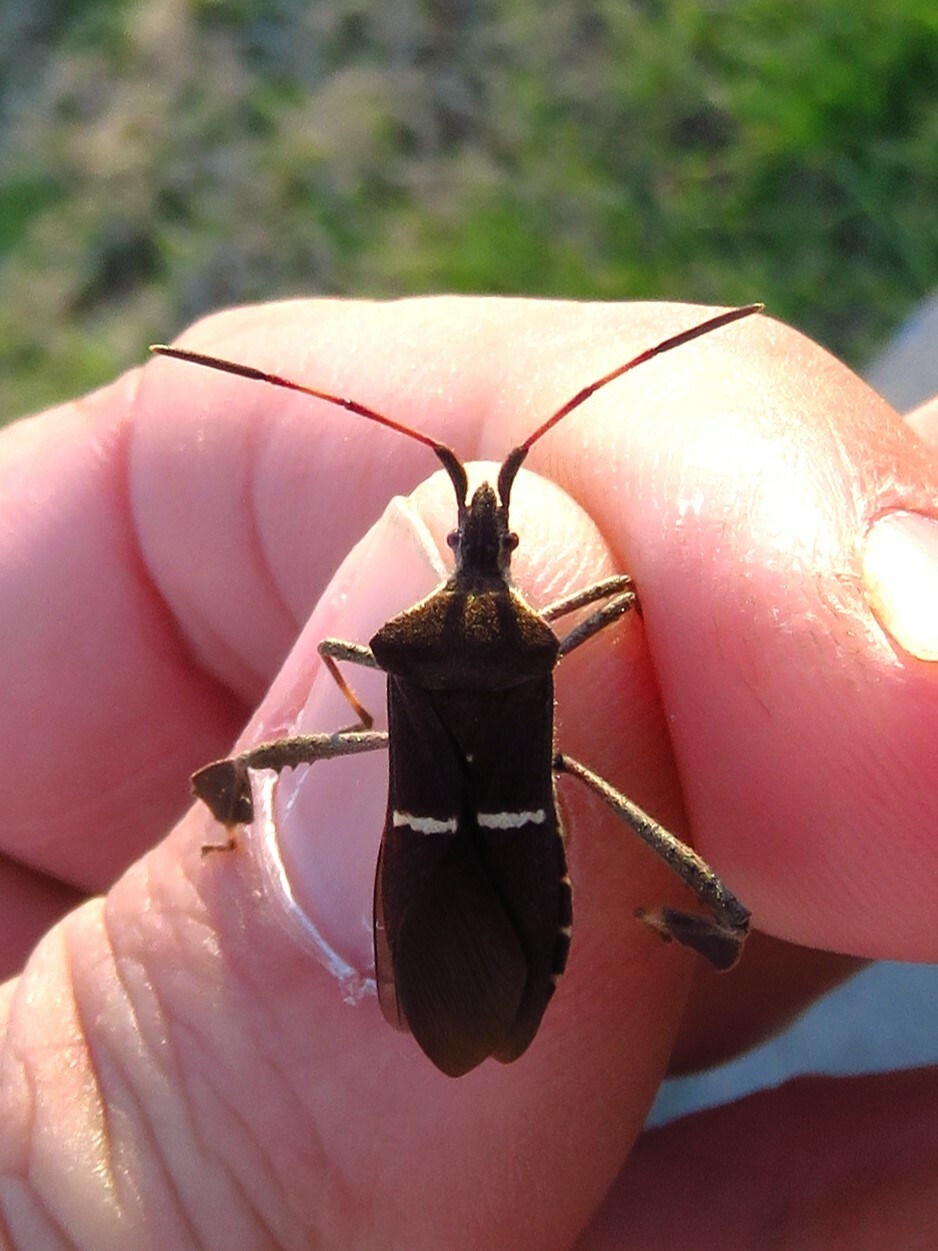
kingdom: Animalia
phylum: Arthropoda
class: Insecta
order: Hemiptera
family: Coreidae
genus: Leptoglossus
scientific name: Leptoglossus phyllopus
